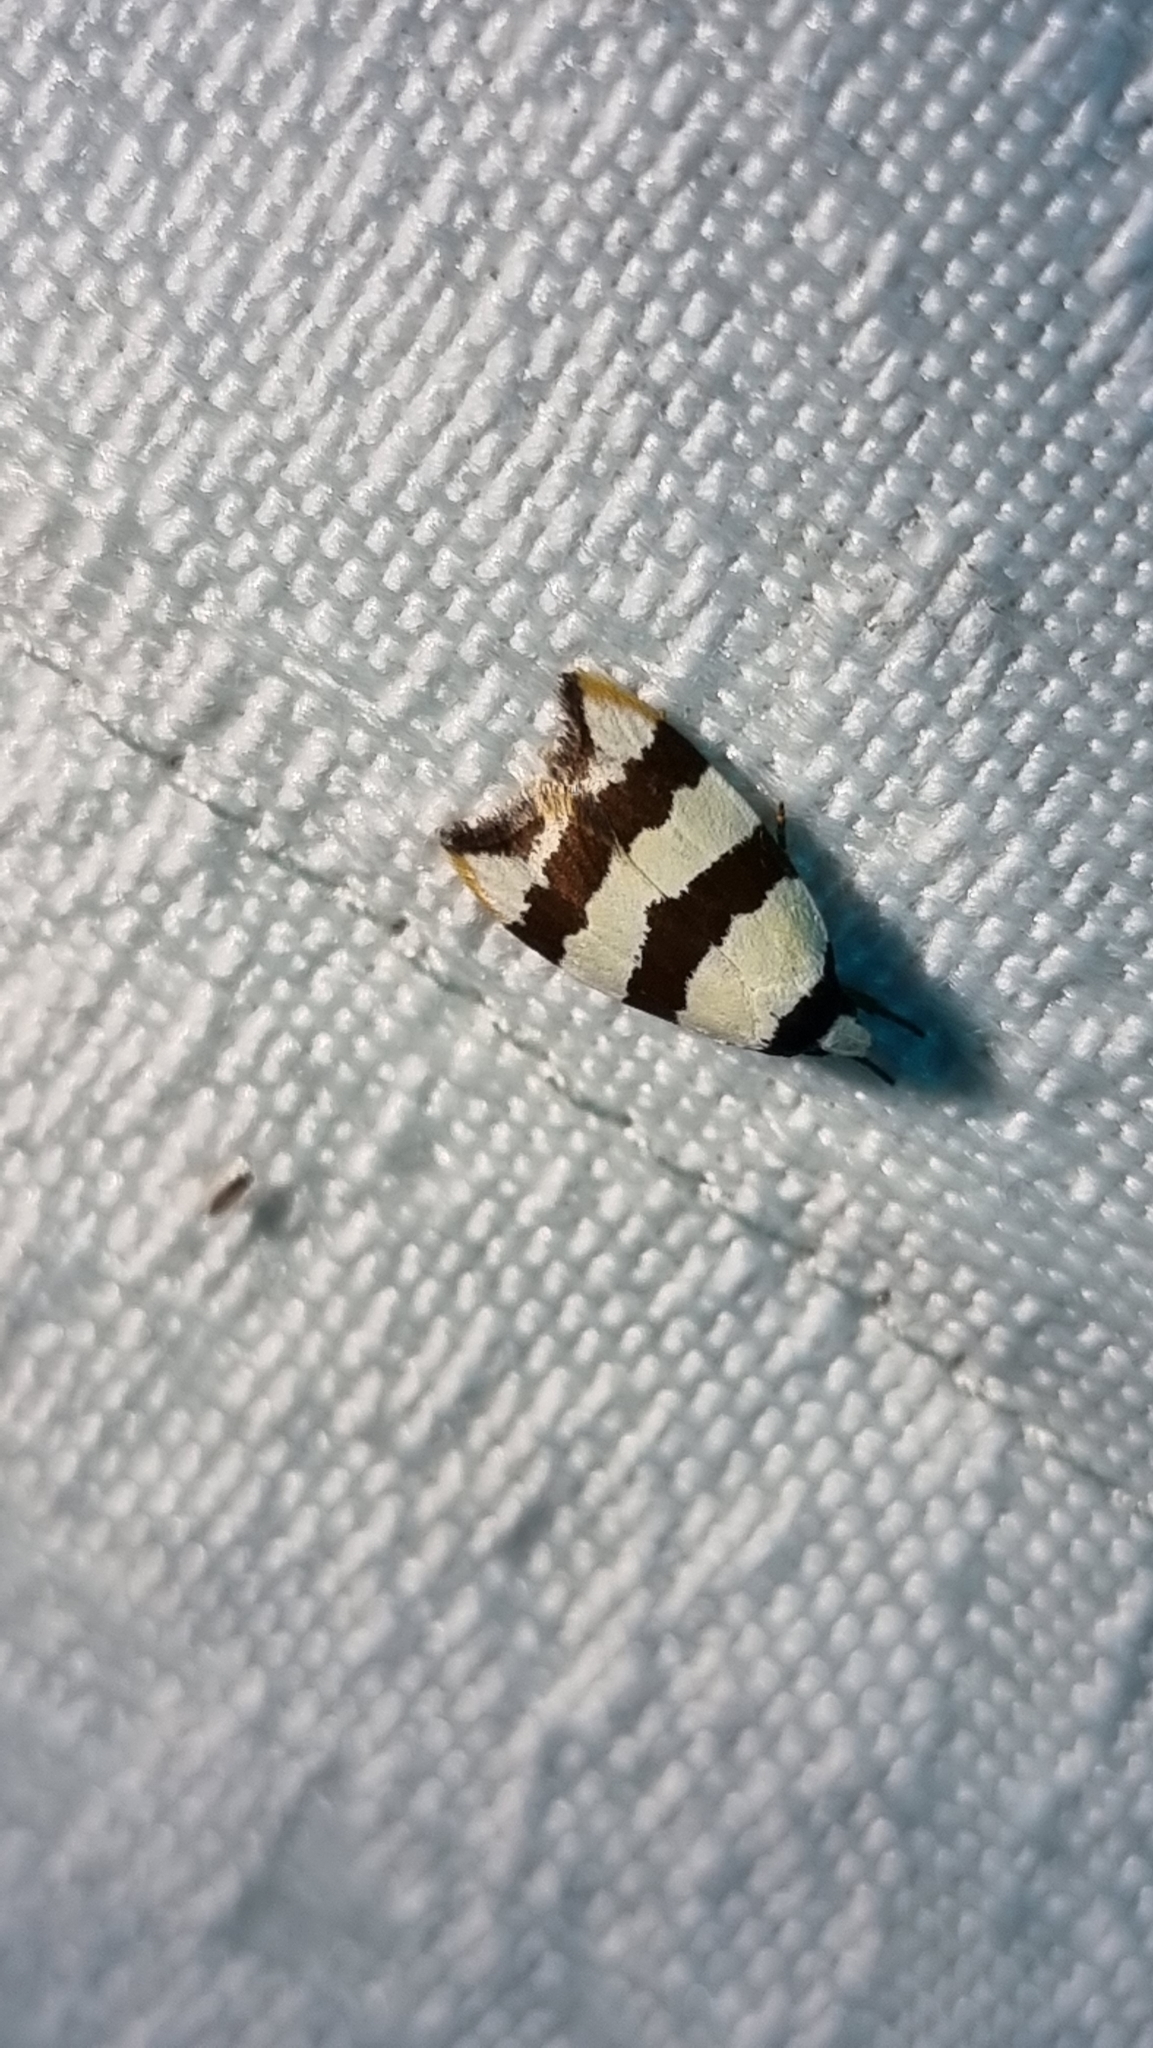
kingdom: Animalia
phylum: Arthropoda
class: Insecta
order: Lepidoptera
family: Oecophoridae
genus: Zonopetala
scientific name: Zonopetala clerota
